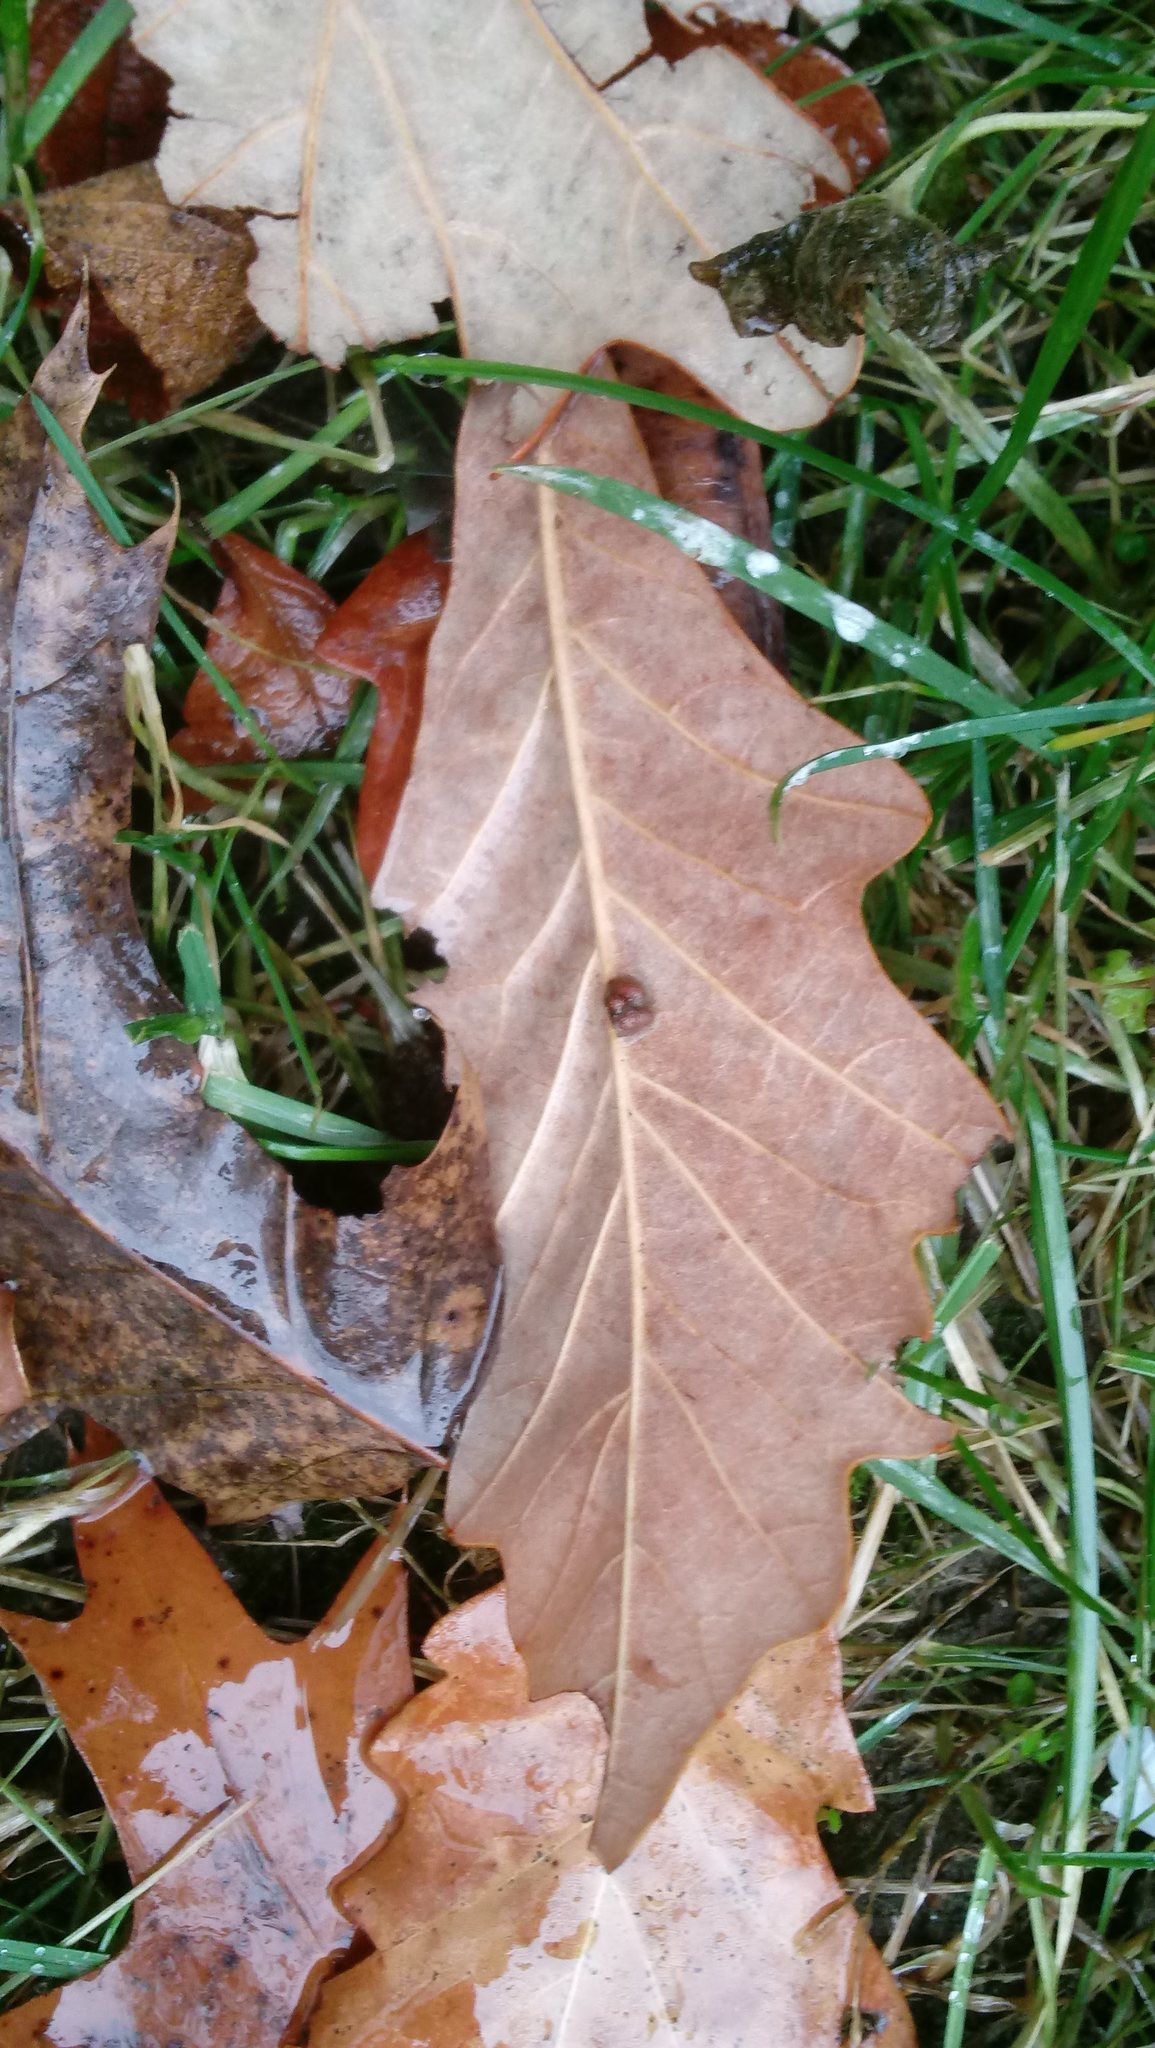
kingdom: Animalia
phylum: Arthropoda
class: Insecta
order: Hymenoptera
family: Cynipidae
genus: Andricus
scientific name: Andricus Druon ignotum
